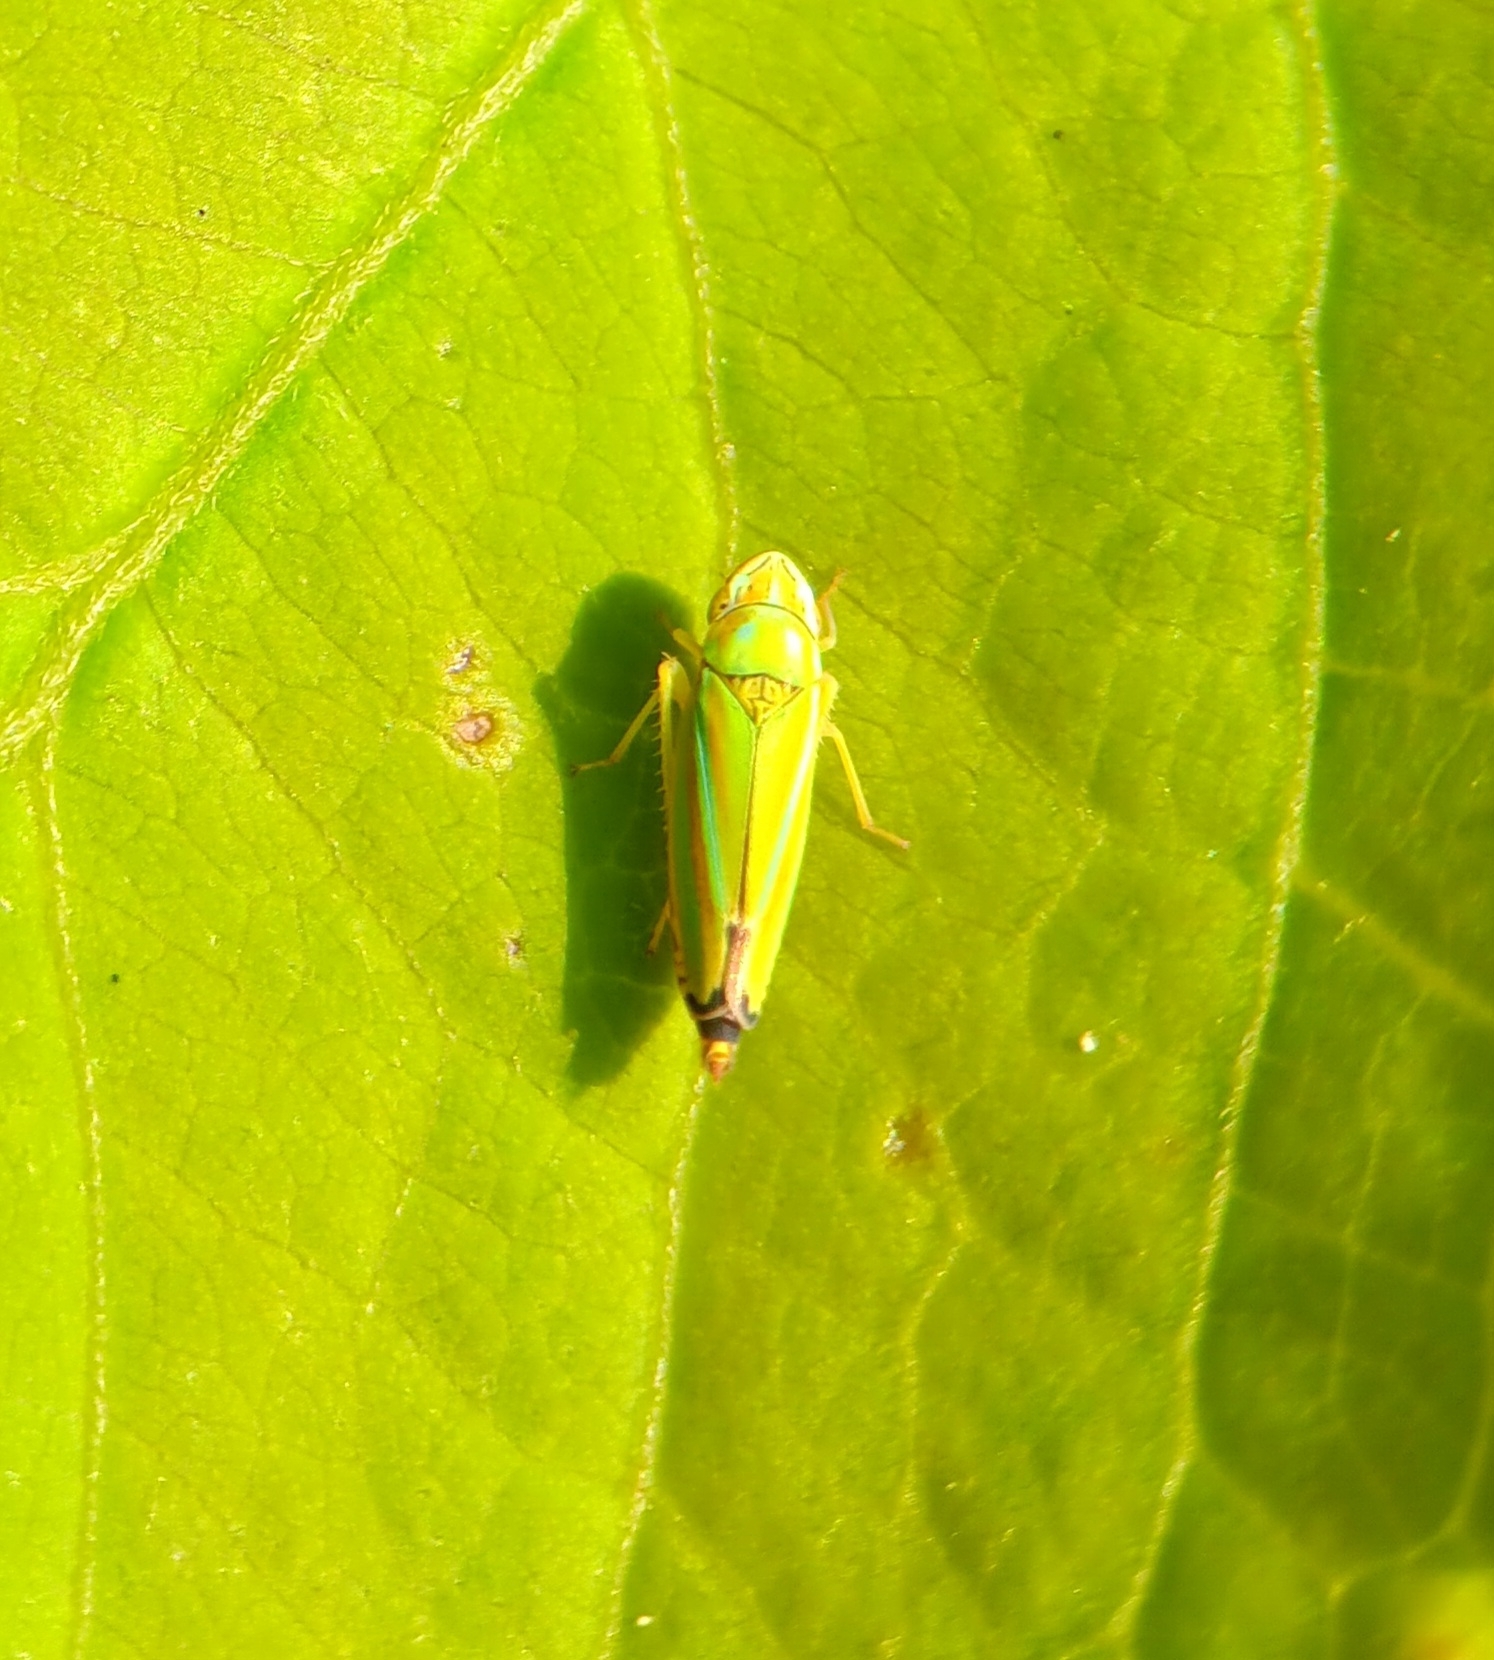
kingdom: Animalia
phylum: Arthropoda
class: Insecta
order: Hemiptera
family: Cicadellidae
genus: Graphocephala
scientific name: Graphocephala versuta
